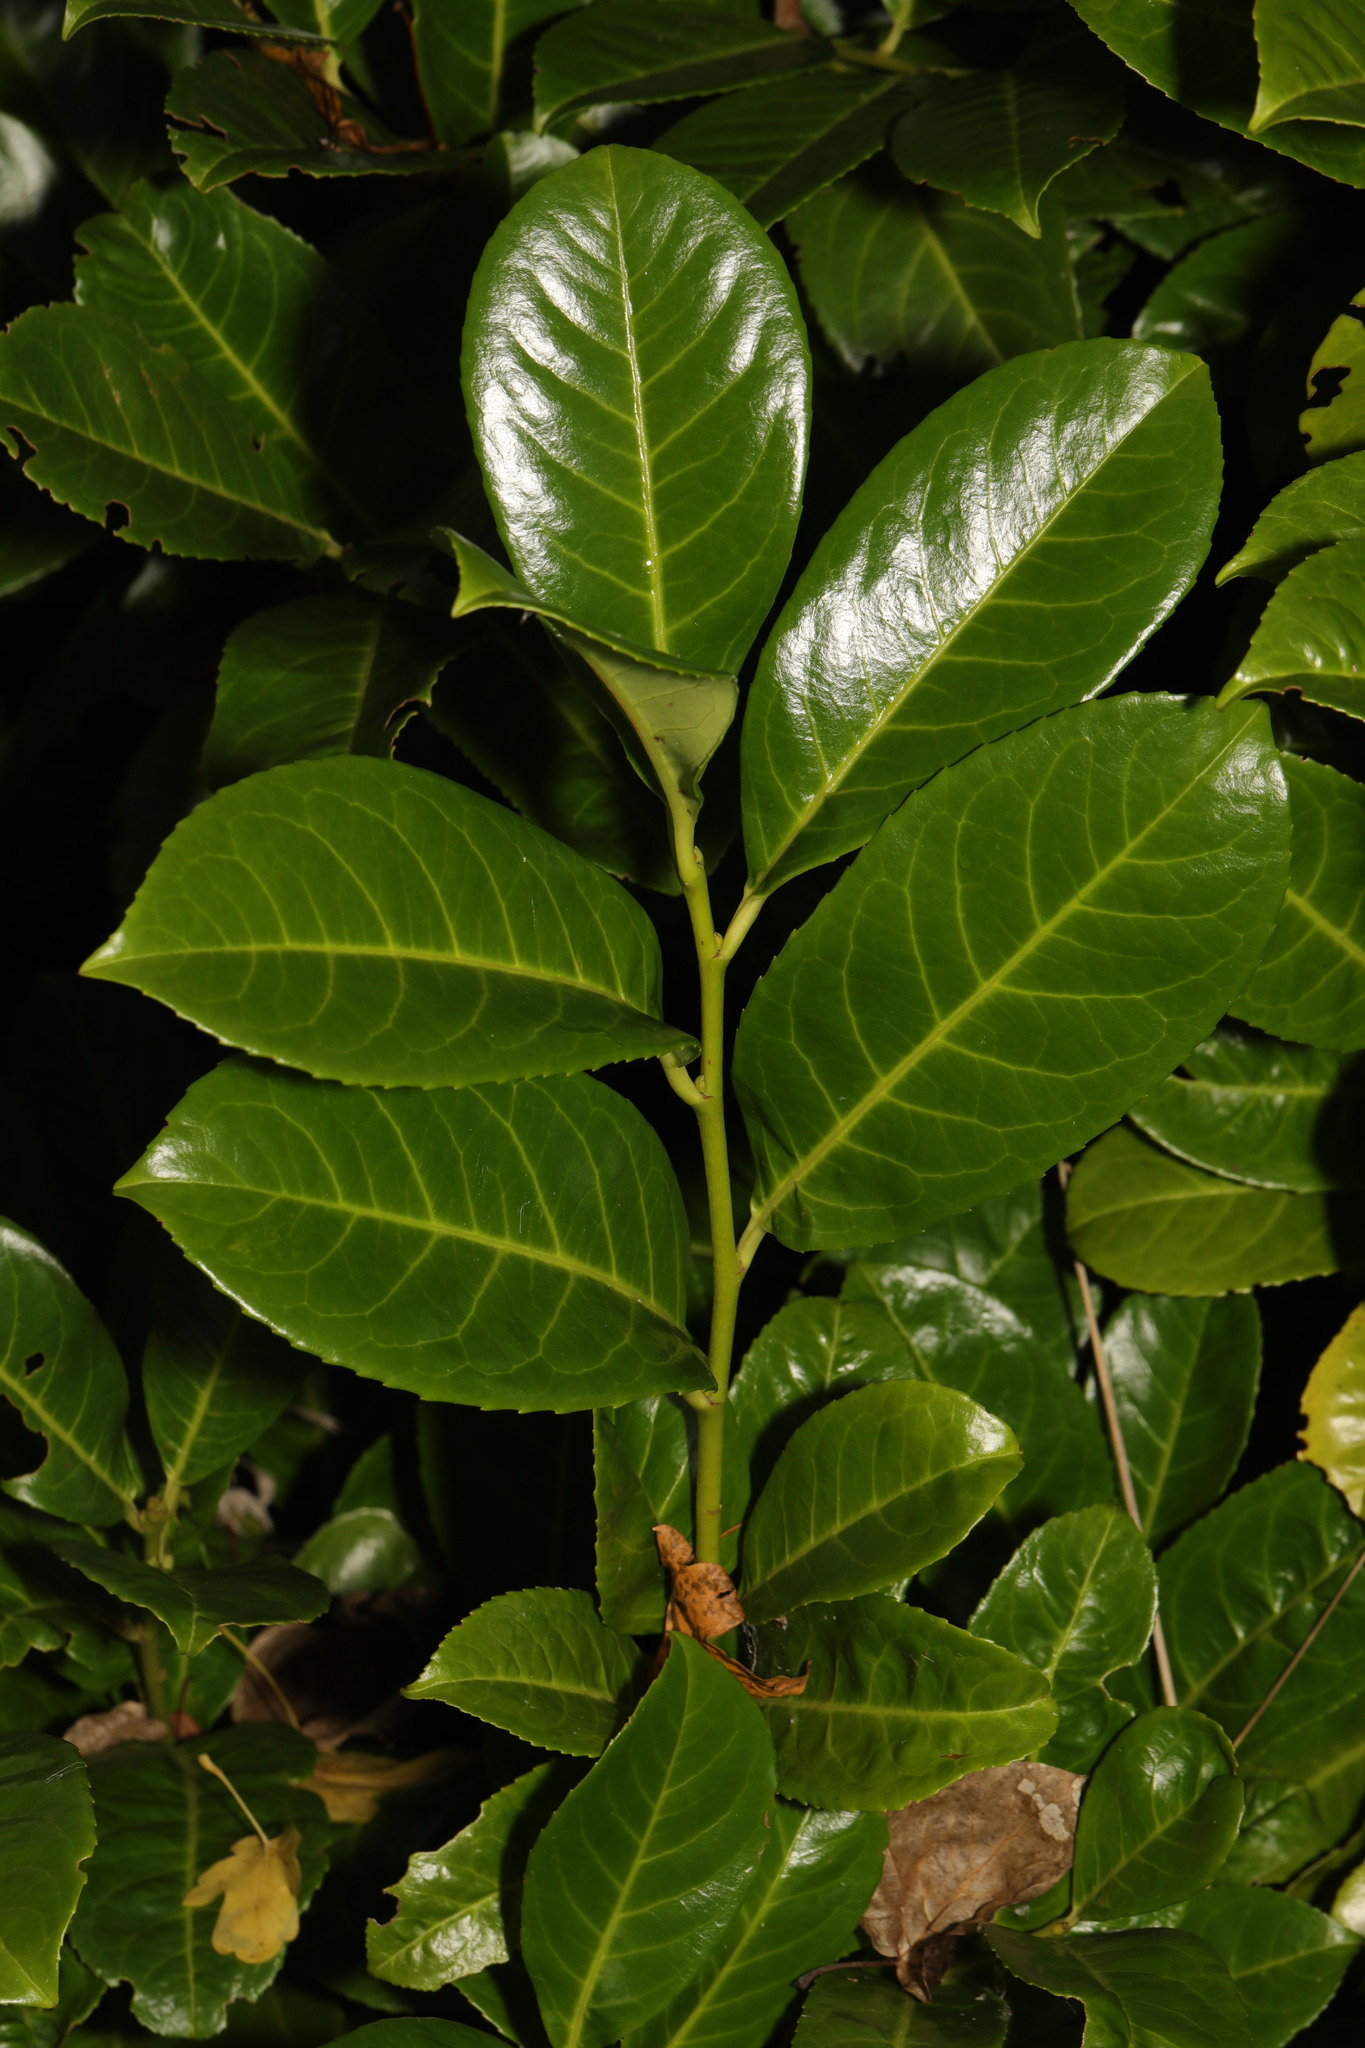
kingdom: Plantae
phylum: Tracheophyta
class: Magnoliopsida
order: Rosales
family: Rosaceae
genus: Prunus
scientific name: Prunus laurocerasus
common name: Cherry laurel
